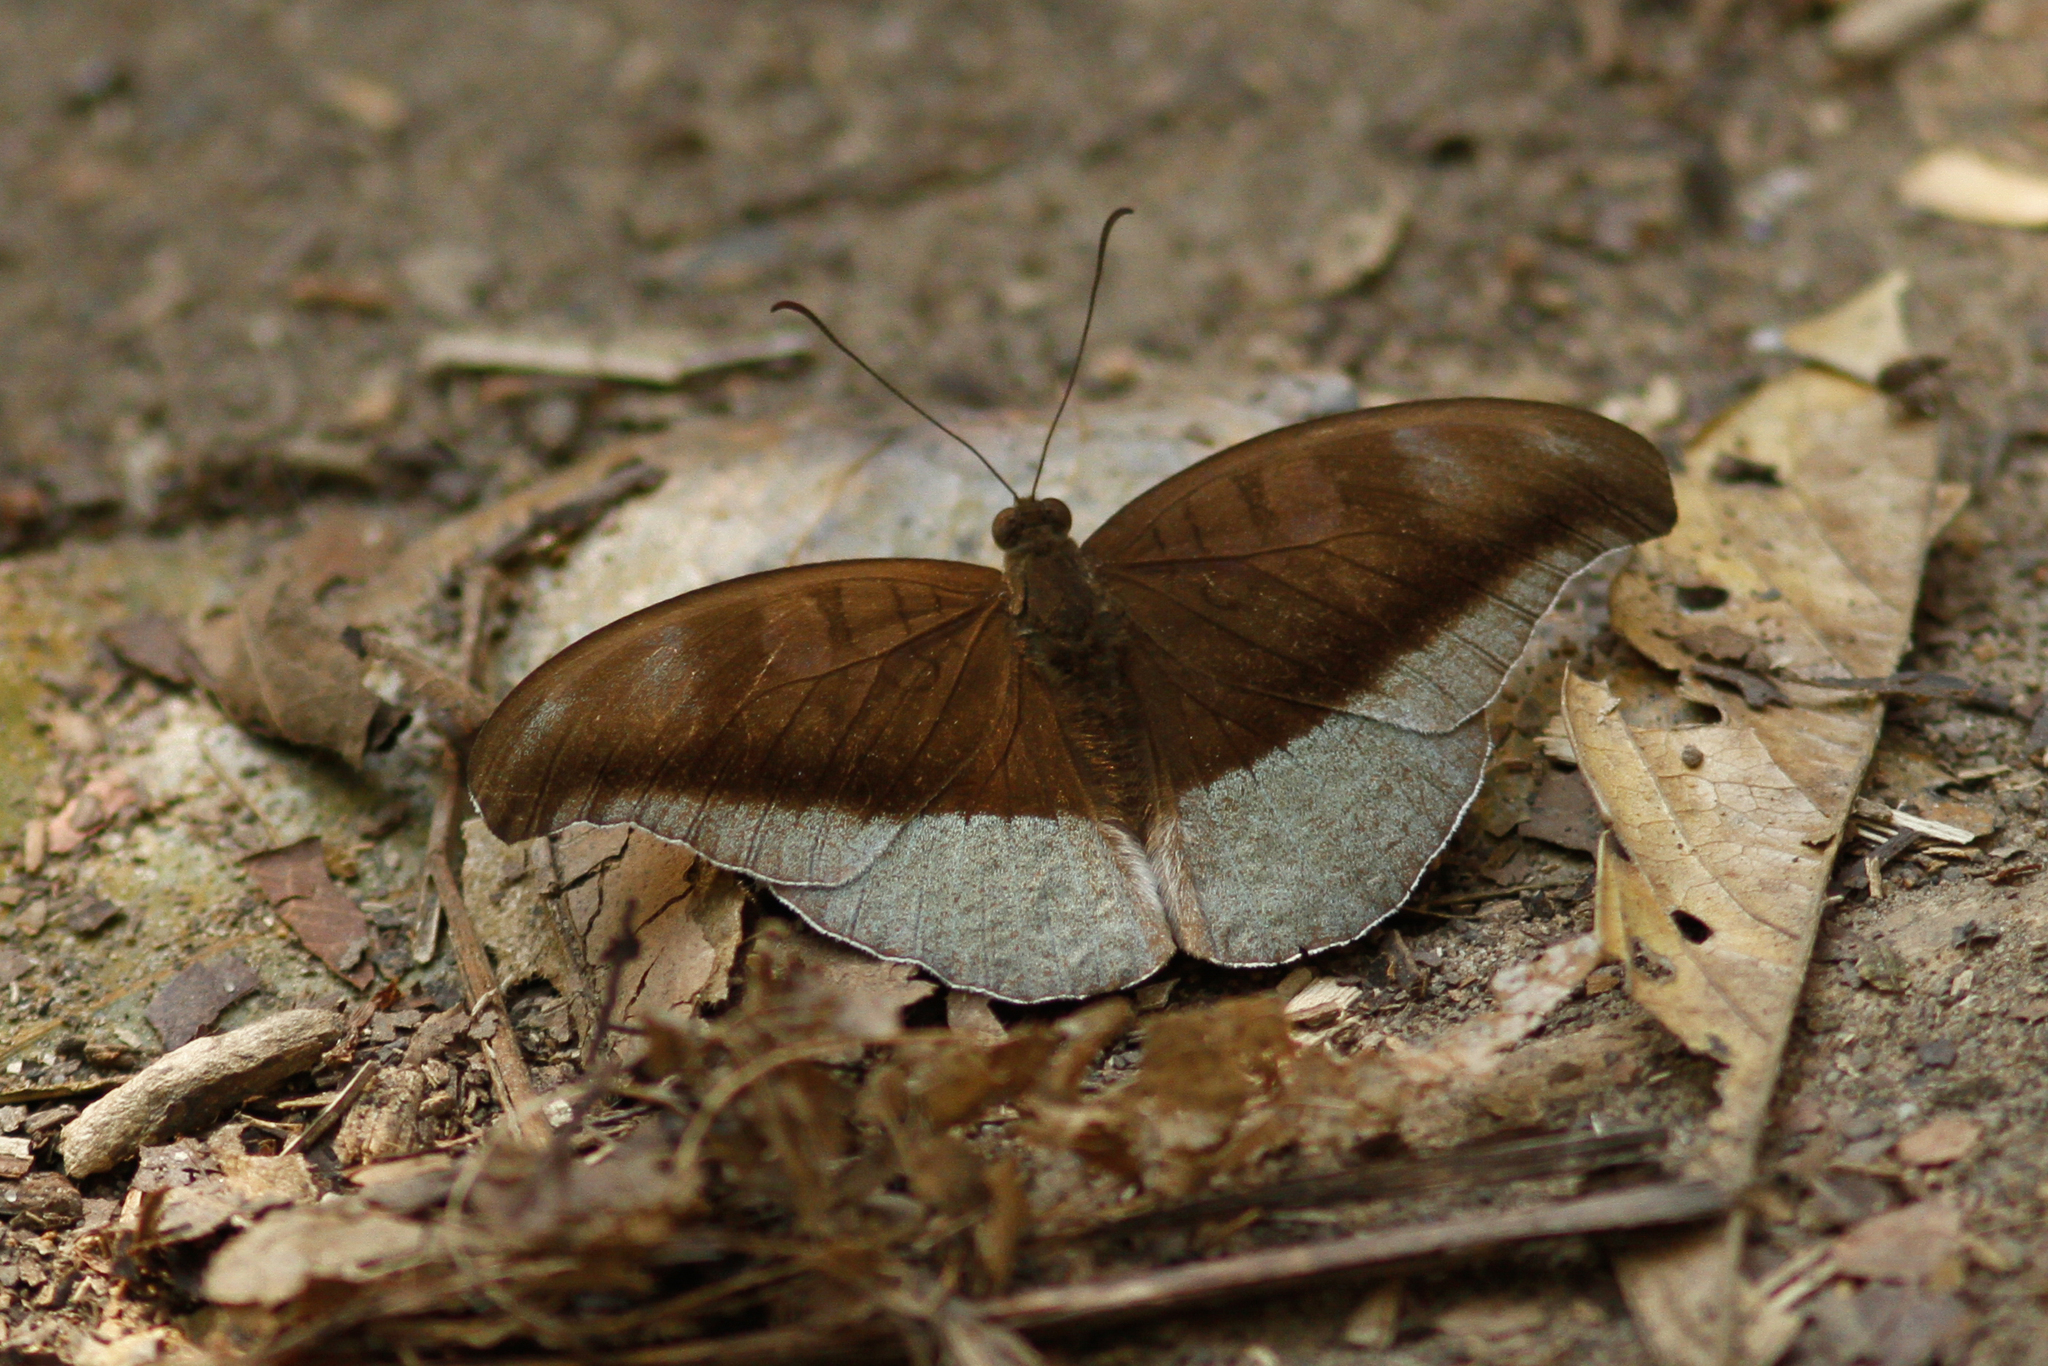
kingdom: Animalia
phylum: Arthropoda
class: Insecta
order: Lepidoptera
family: Nymphalidae
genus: Tanaecia
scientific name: Tanaecia cocytus
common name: Lavender count
